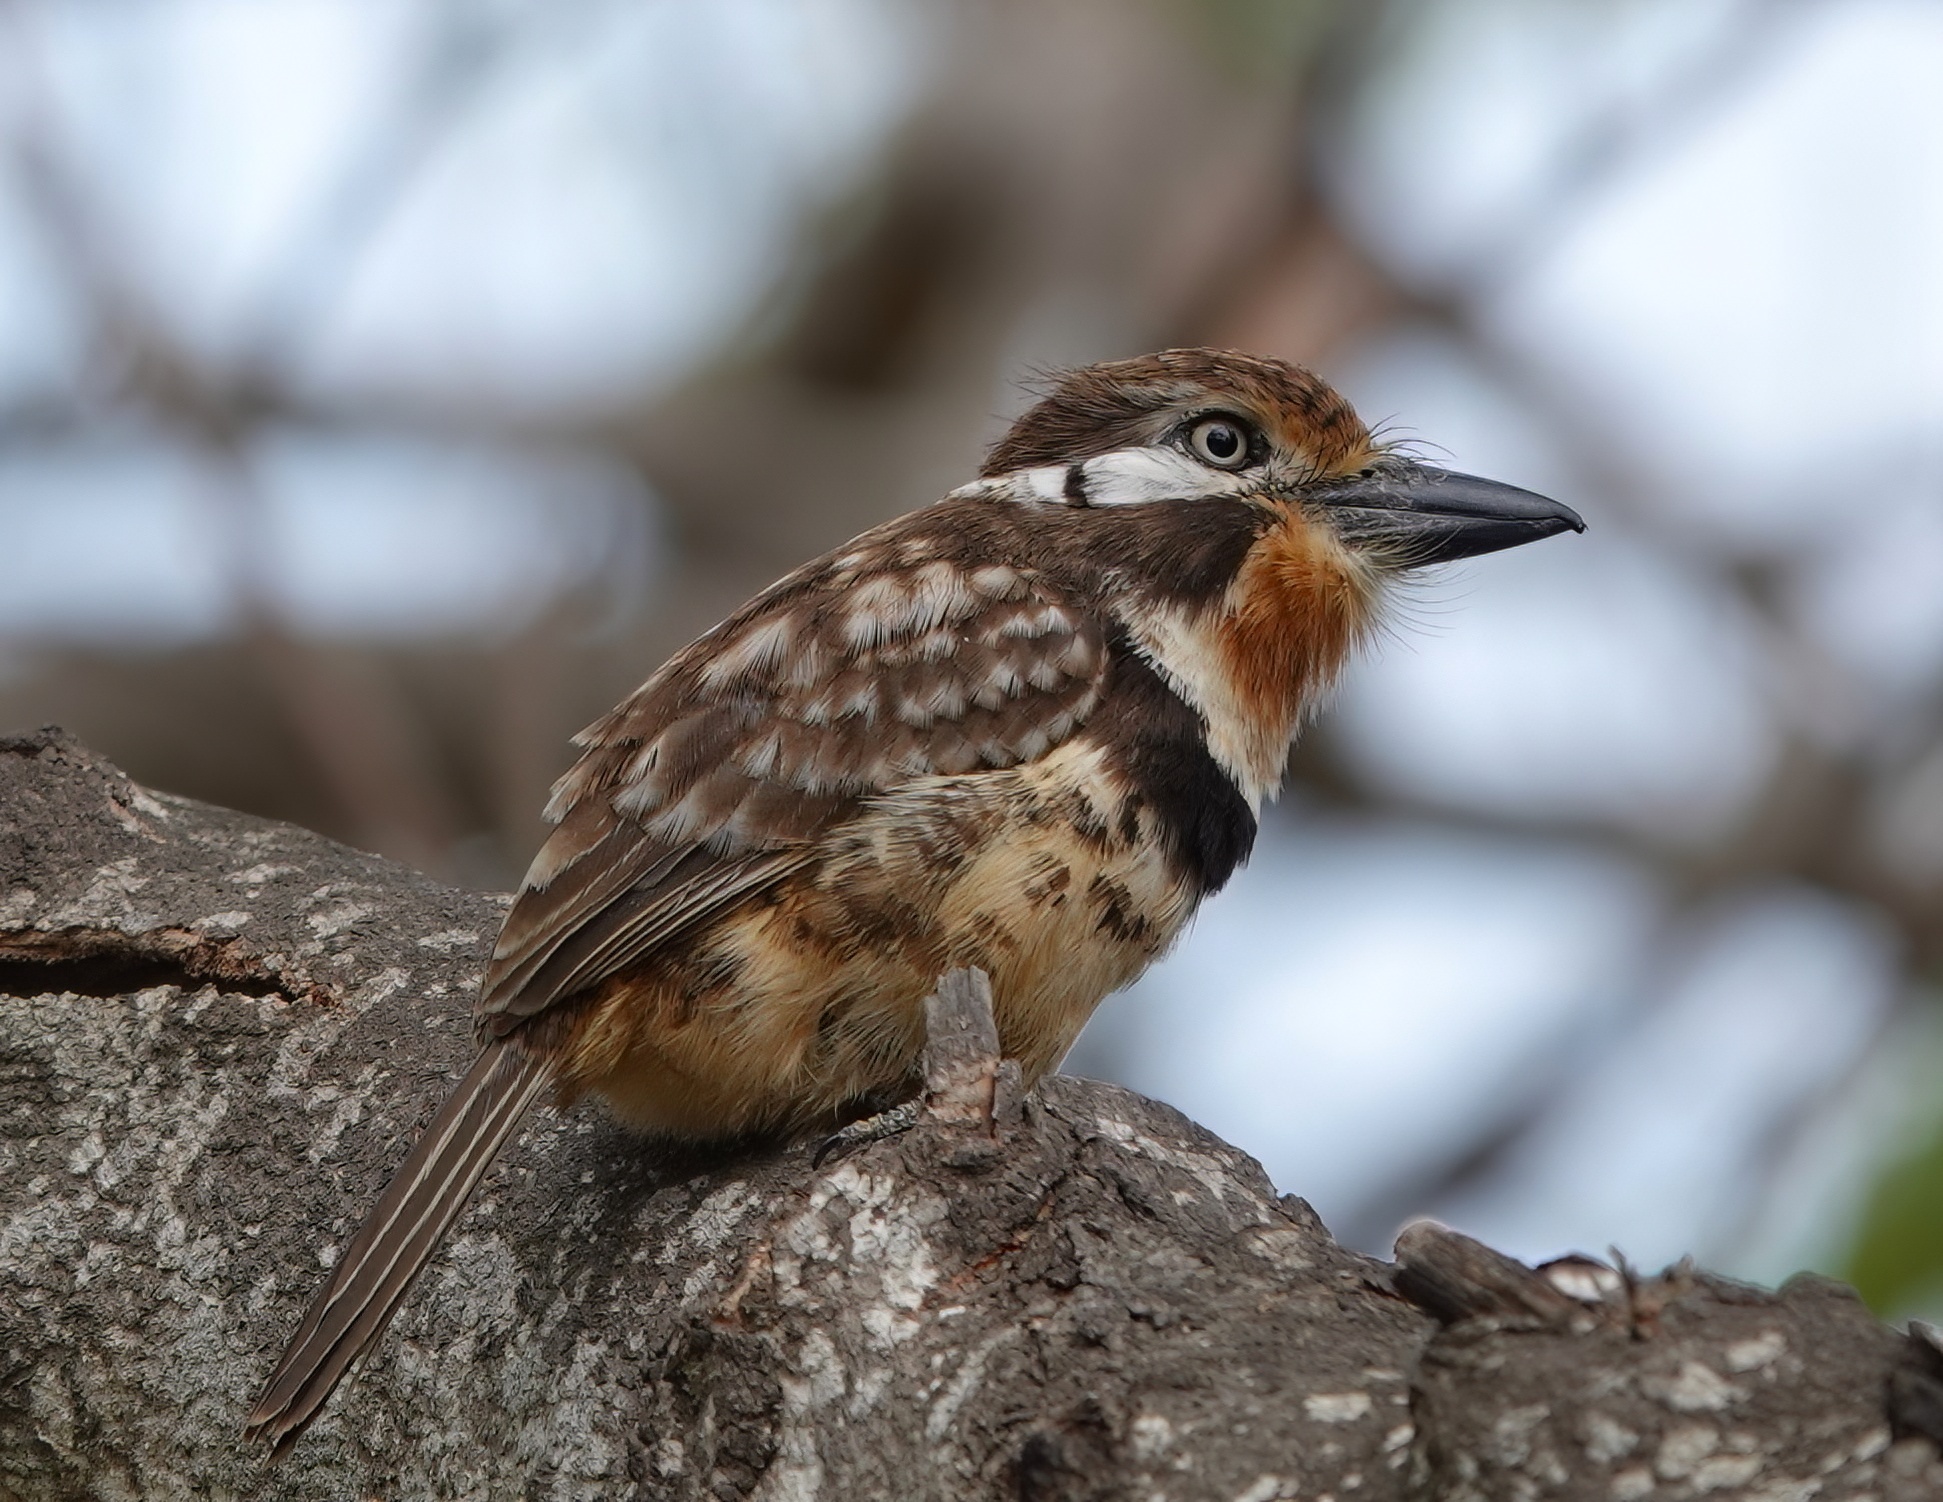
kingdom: Animalia
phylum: Chordata
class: Aves
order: Piciformes
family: Bucconidae
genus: Hypnelus
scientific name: Hypnelus ruficollis
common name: Russet-throated puffbird
